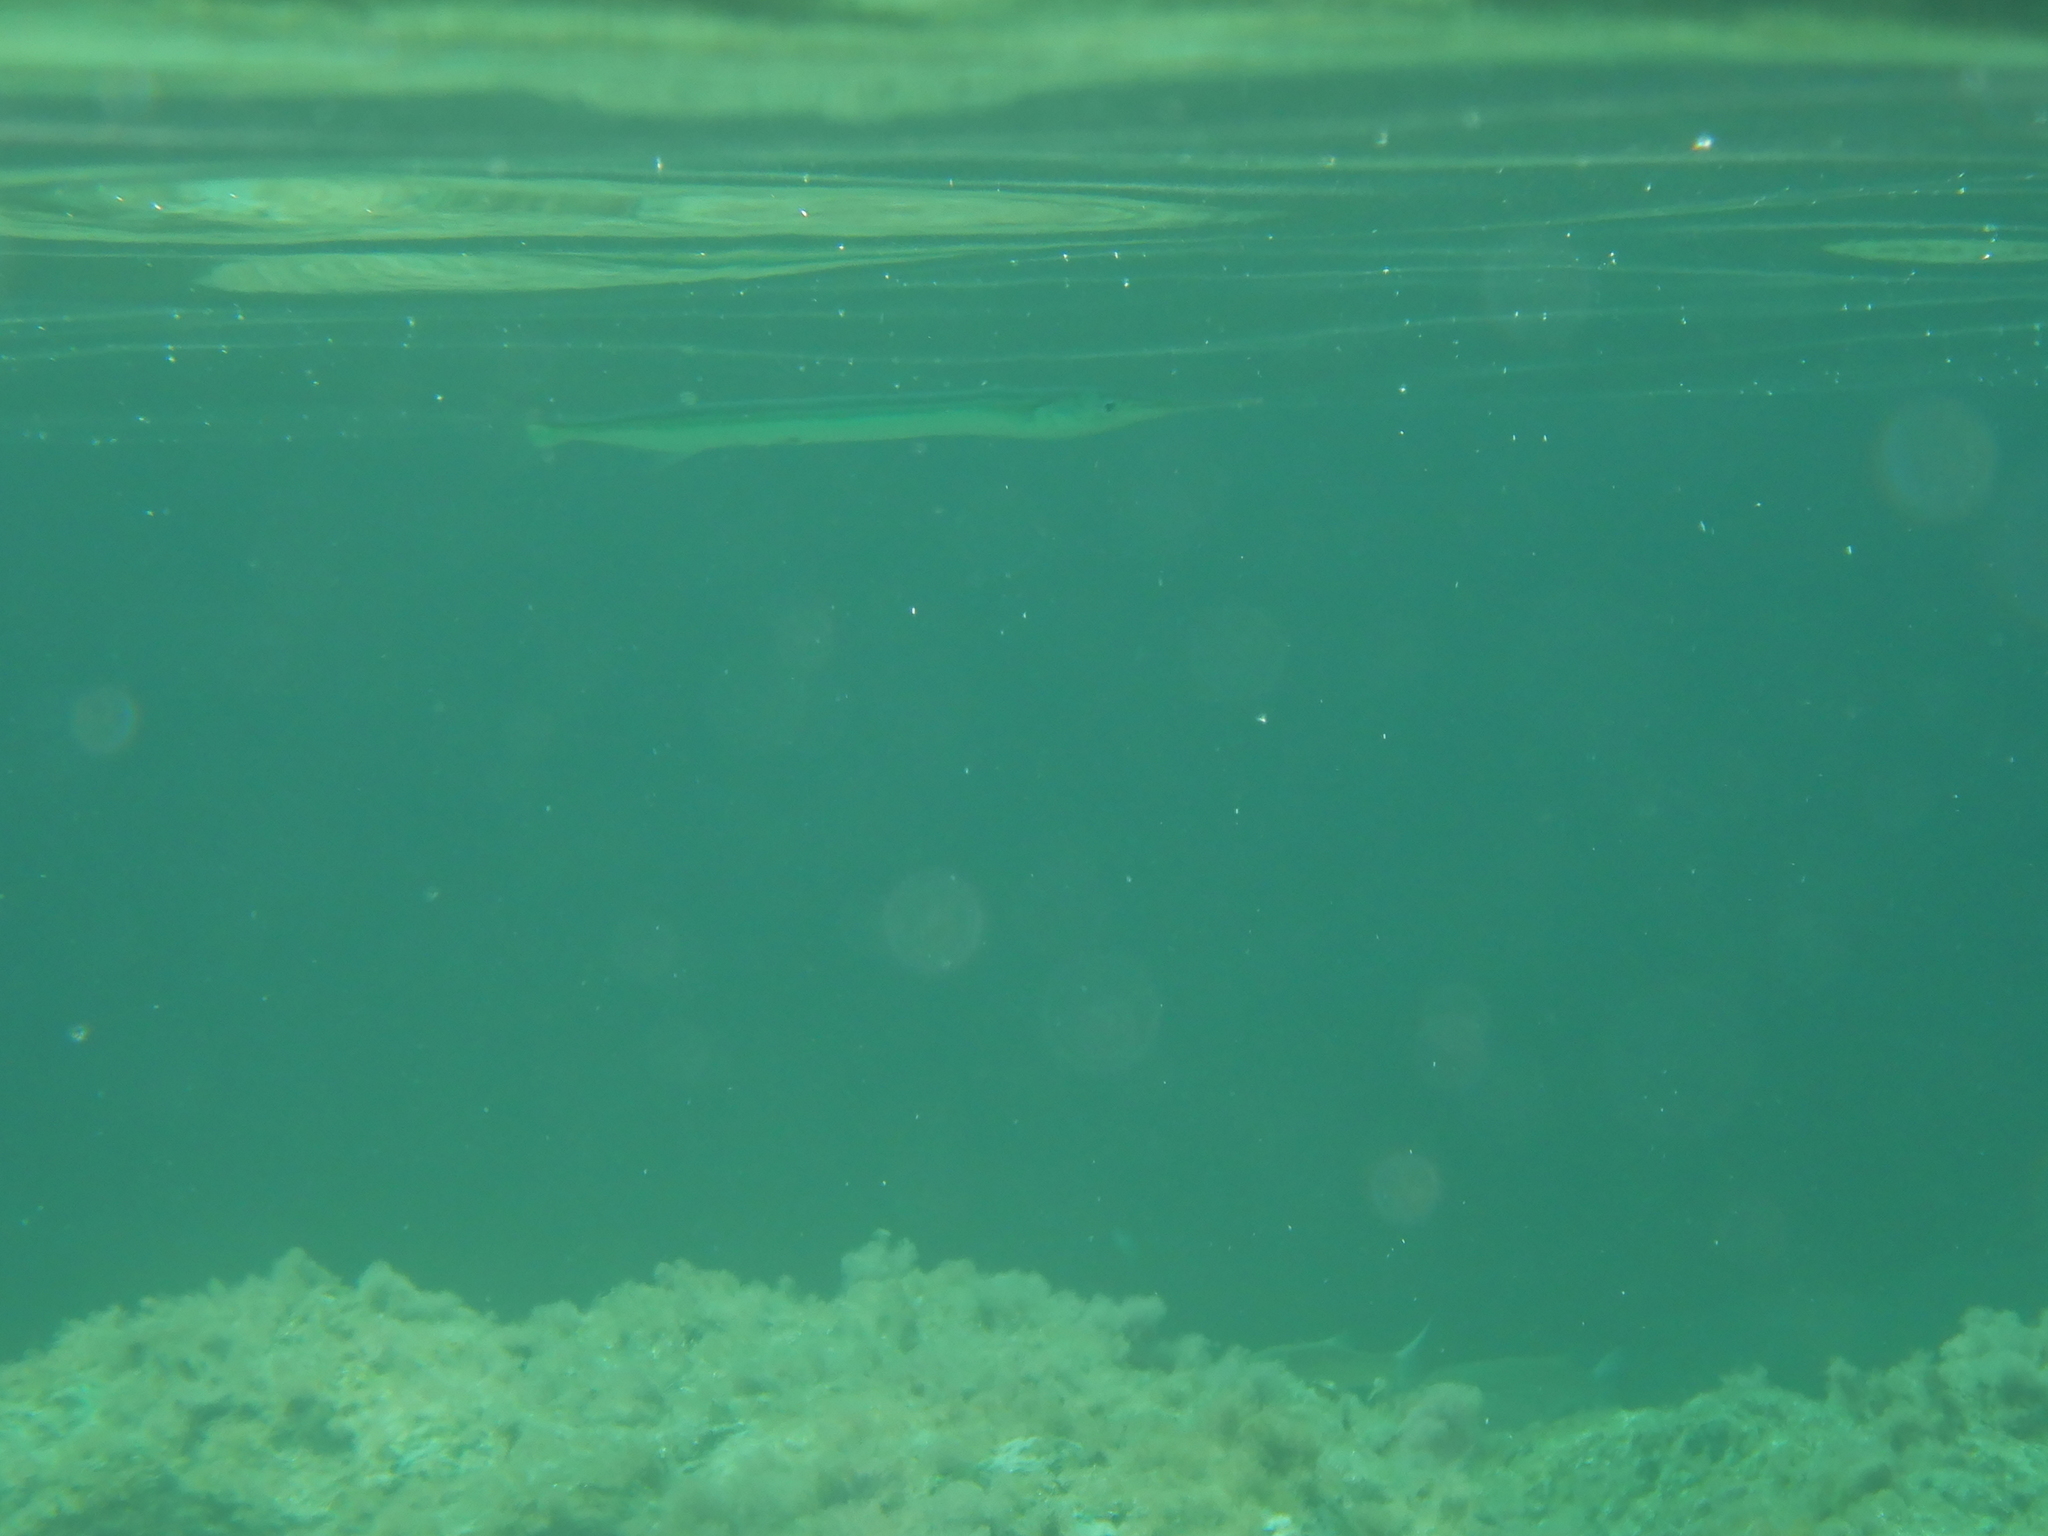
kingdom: Animalia
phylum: Chordata
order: Beloniformes
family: Belonidae
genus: Belone
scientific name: Belone belone
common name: Garfish
